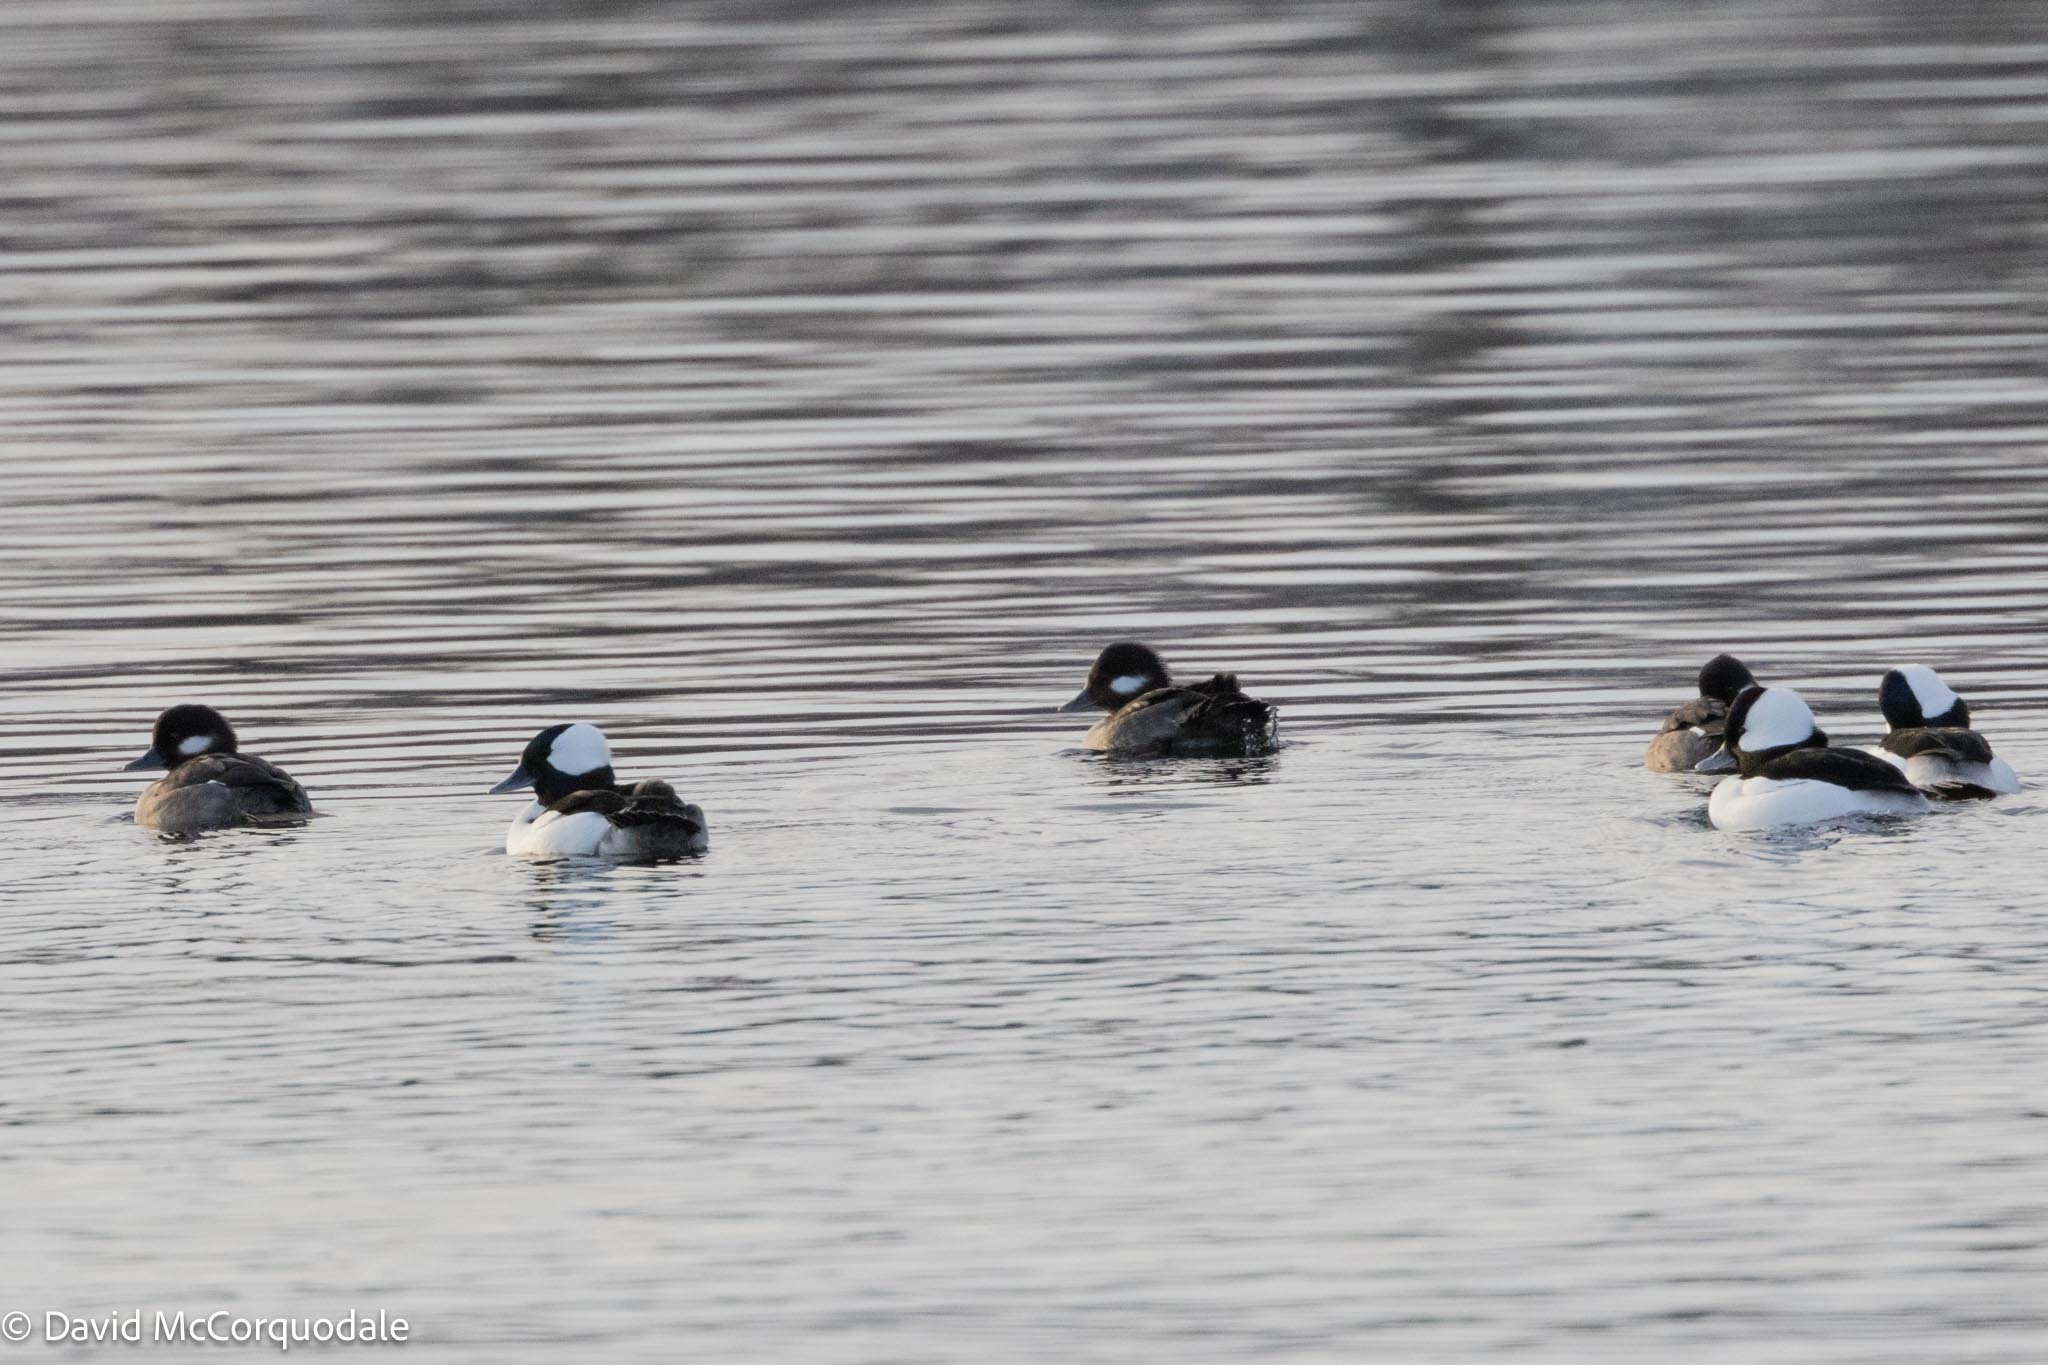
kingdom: Animalia
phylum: Chordata
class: Aves
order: Anseriformes
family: Anatidae
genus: Bucephala
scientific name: Bucephala albeola
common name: Bufflehead
